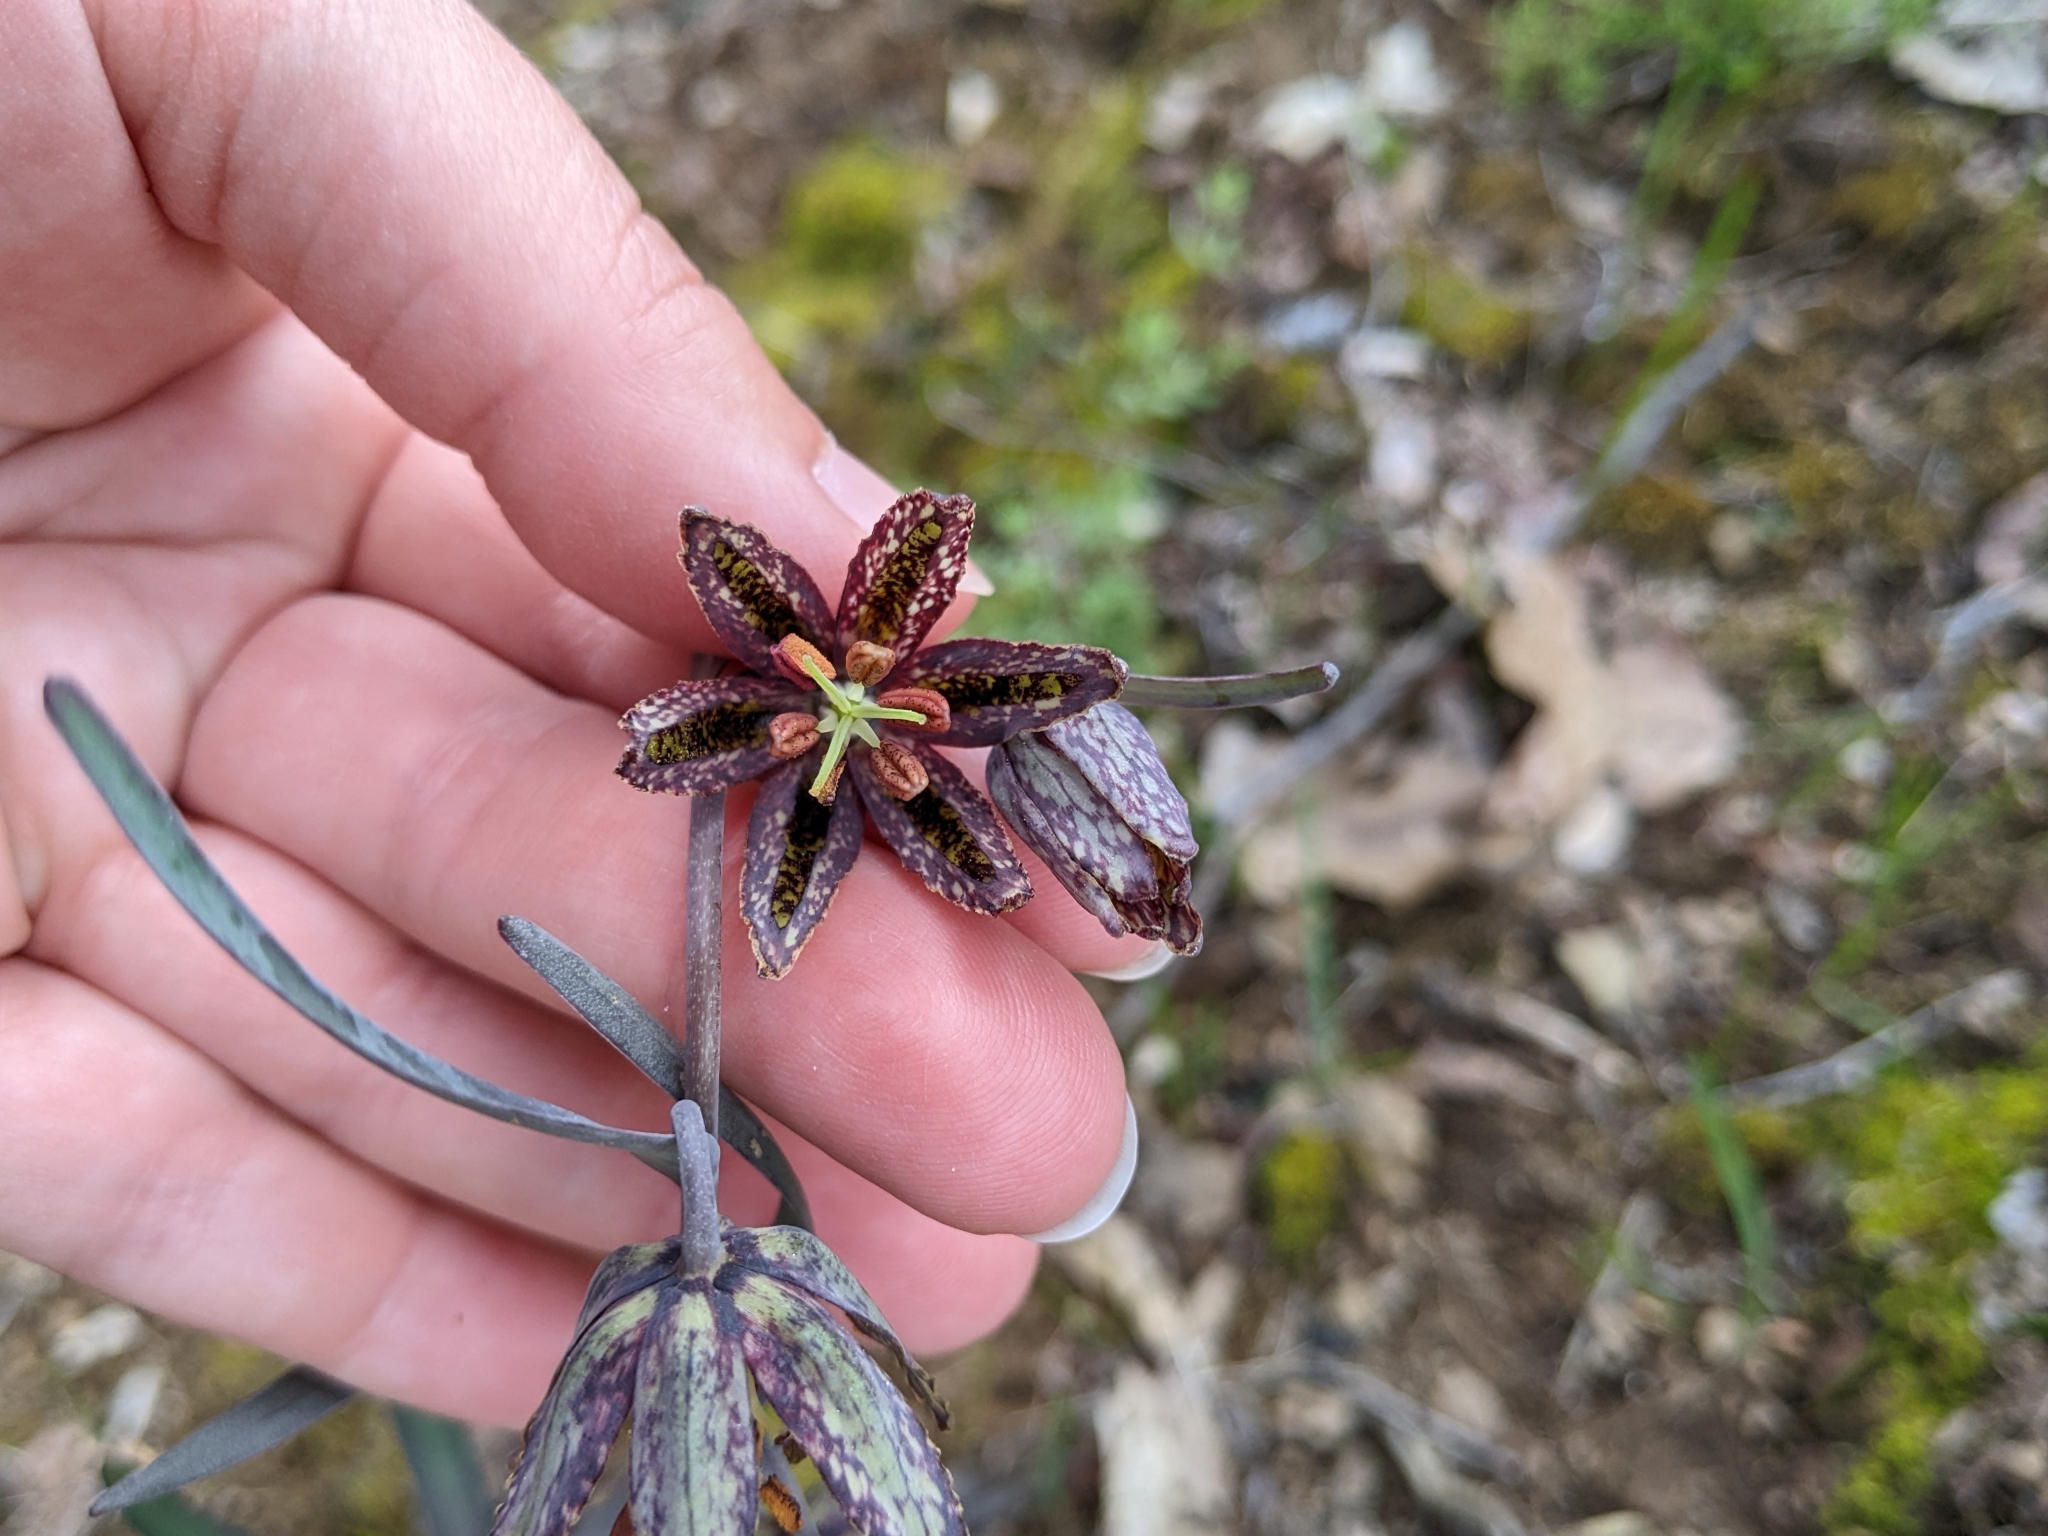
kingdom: Plantae
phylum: Tracheophyta
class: Liliopsida
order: Liliales
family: Liliaceae
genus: Fritillaria
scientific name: Fritillaria affinis
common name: Ojai fritillary
